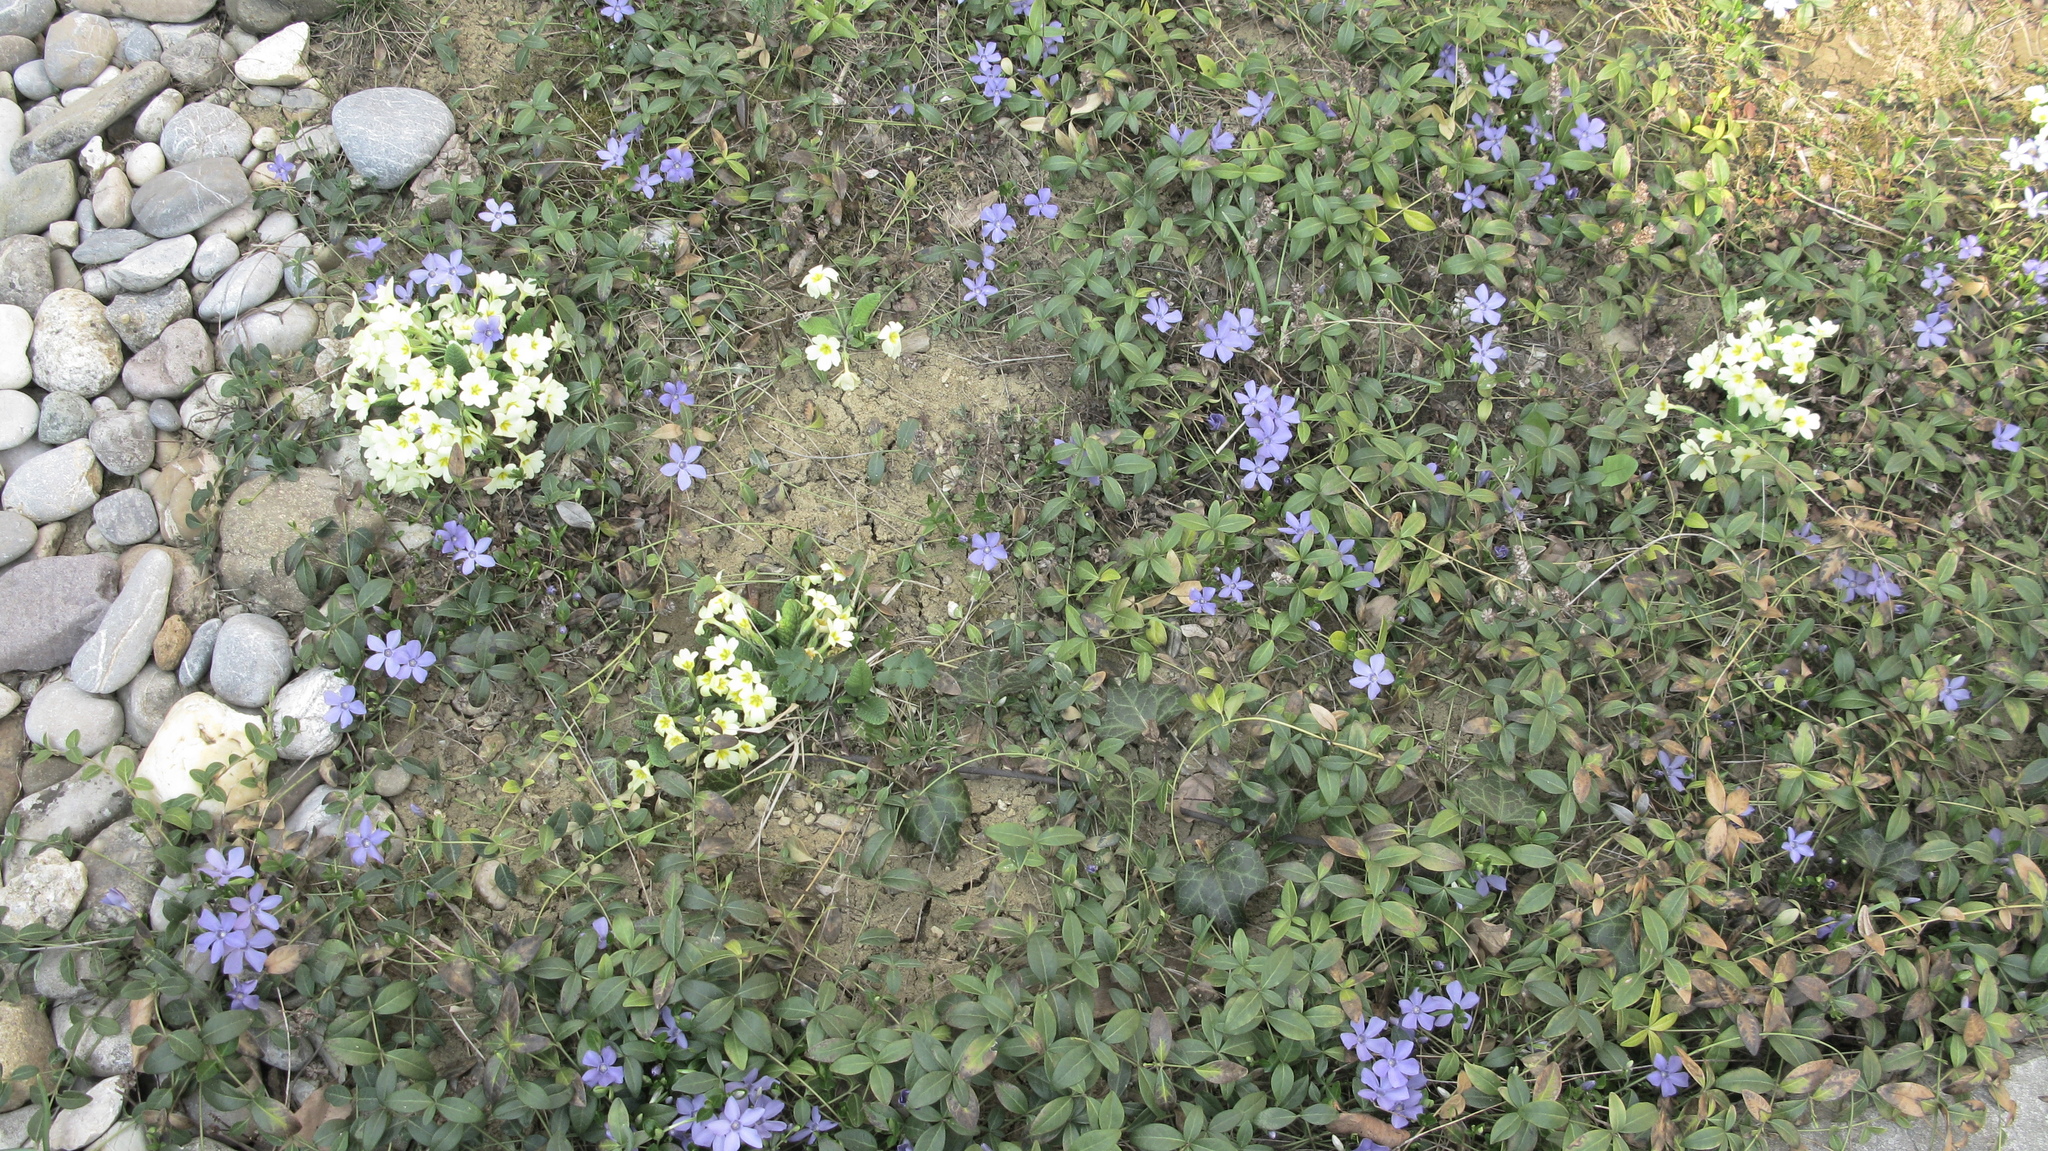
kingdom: Plantae
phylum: Tracheophyta
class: Magnoliopsida
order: Gentianales
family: Apocynaceae
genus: Vinca
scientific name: Vinca minor
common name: Lesser periwinkle
